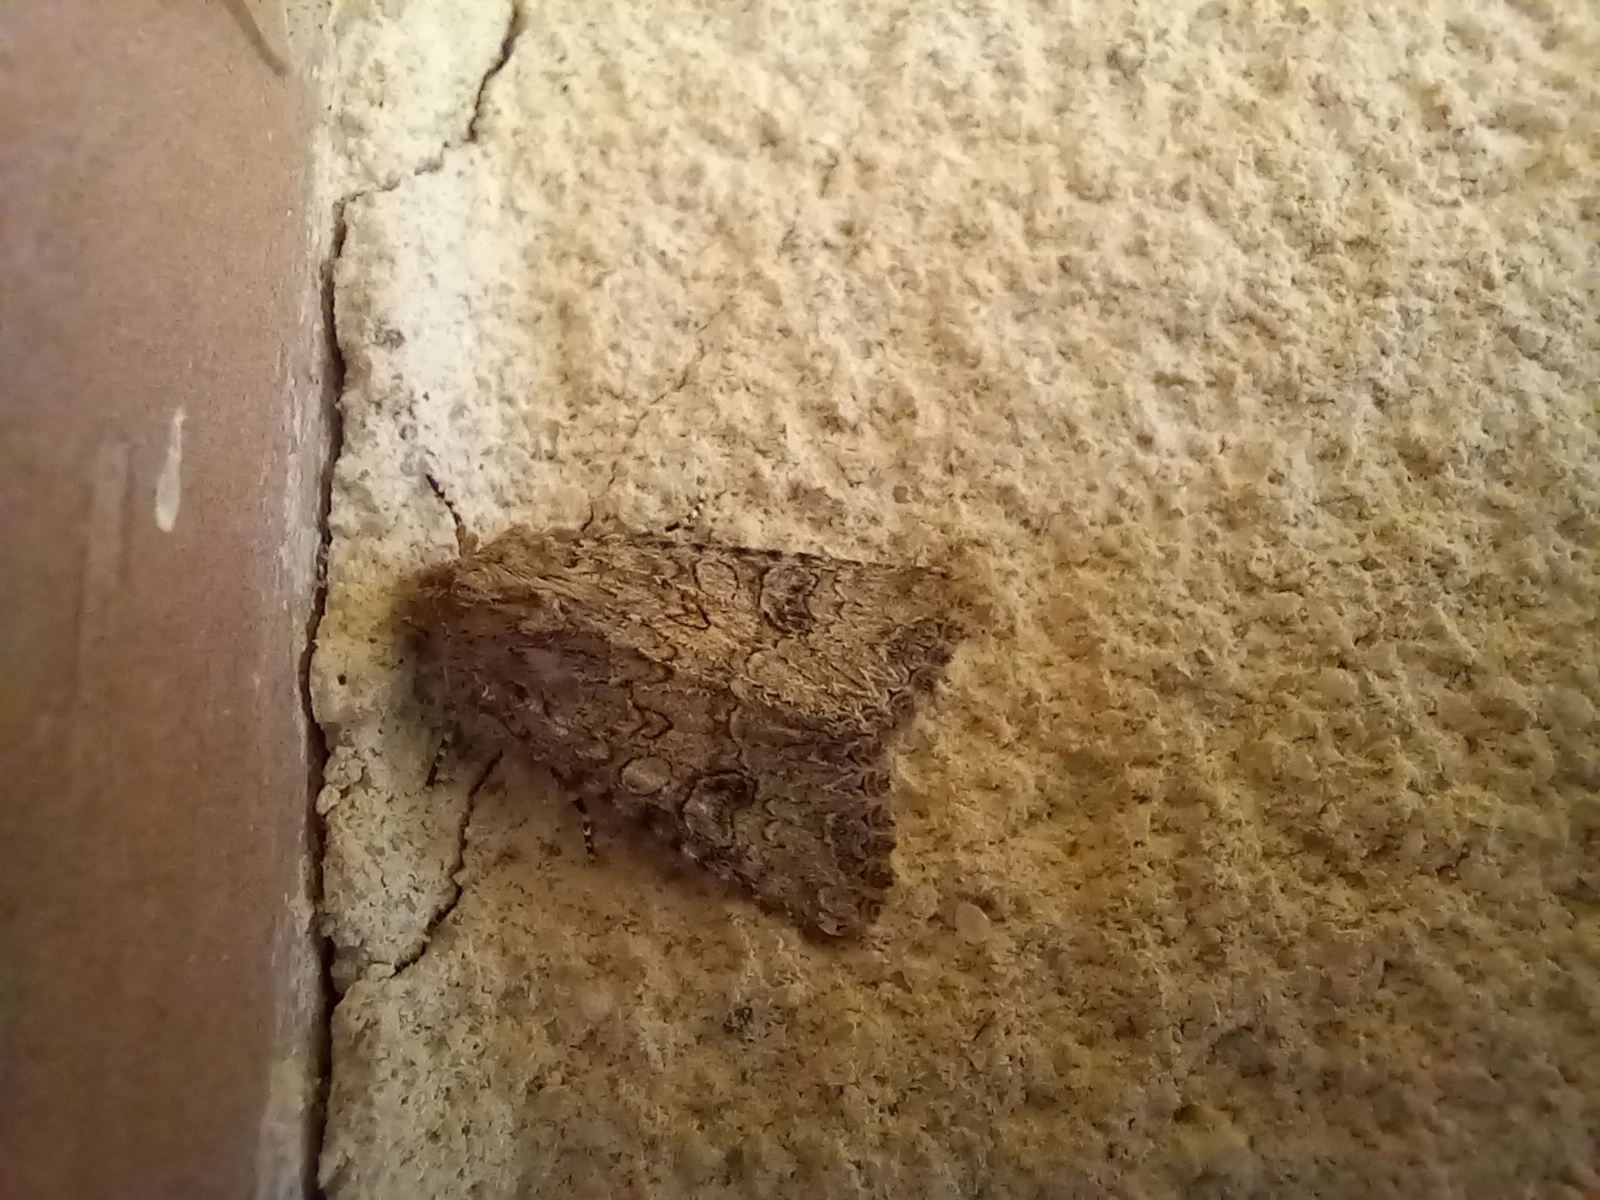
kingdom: Animalia
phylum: Arthropoda
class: Insecta
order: Lepidoptera
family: Noctuidae
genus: Anarta
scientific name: Anarta trifolii
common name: Clover cutworm moth
